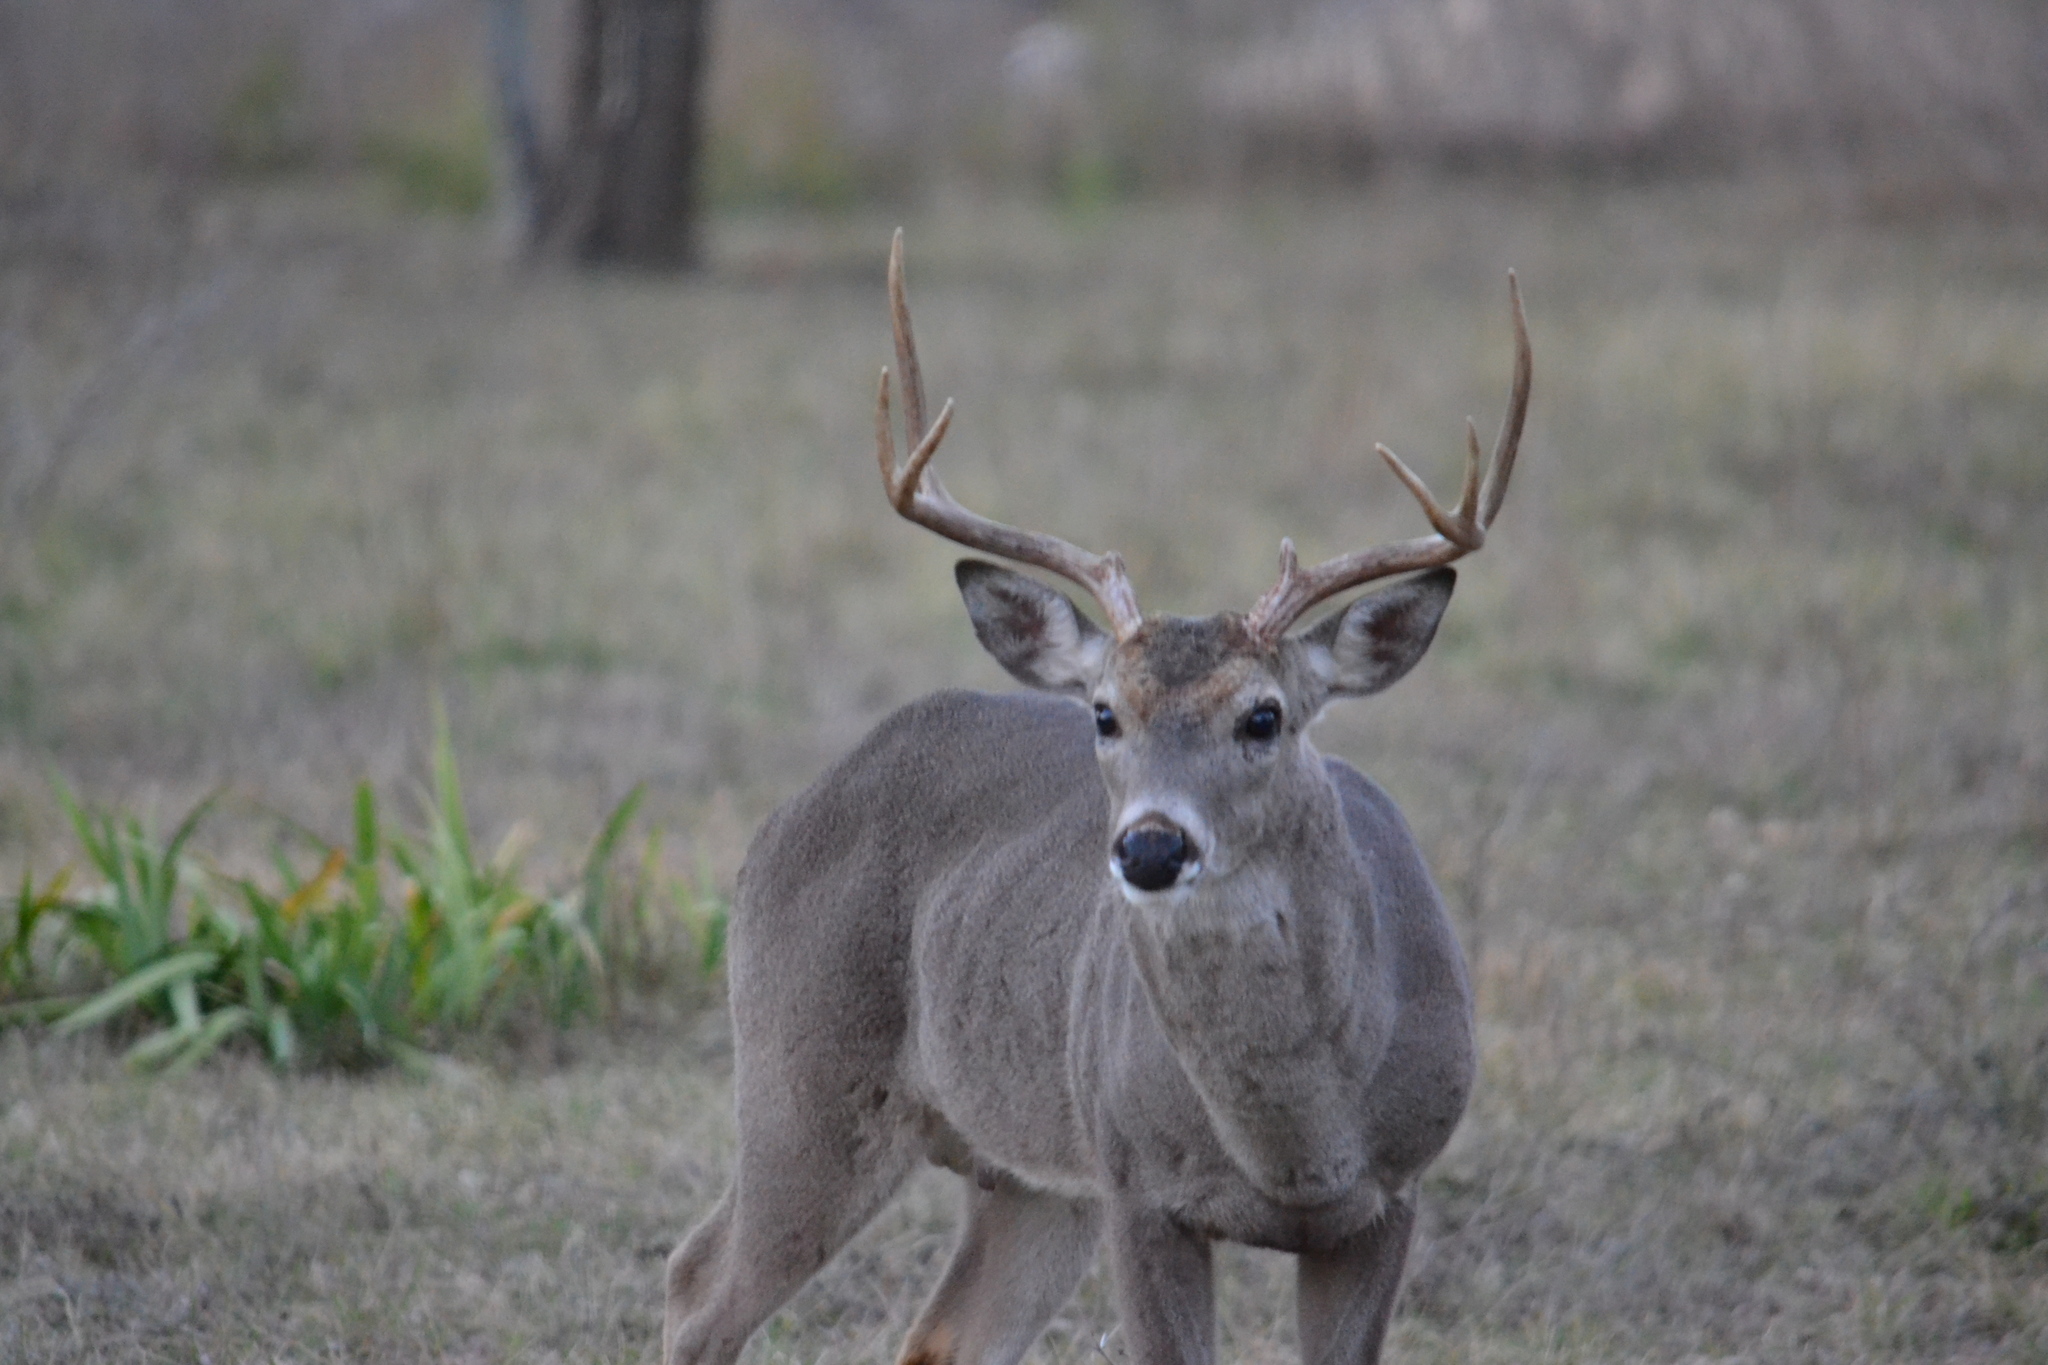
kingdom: Animalia
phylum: Chordata
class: Mammalia
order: Artiodactyla
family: Cervidae
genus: Odocoileus
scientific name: Odocoileus virginianus
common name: White-tailed deer
